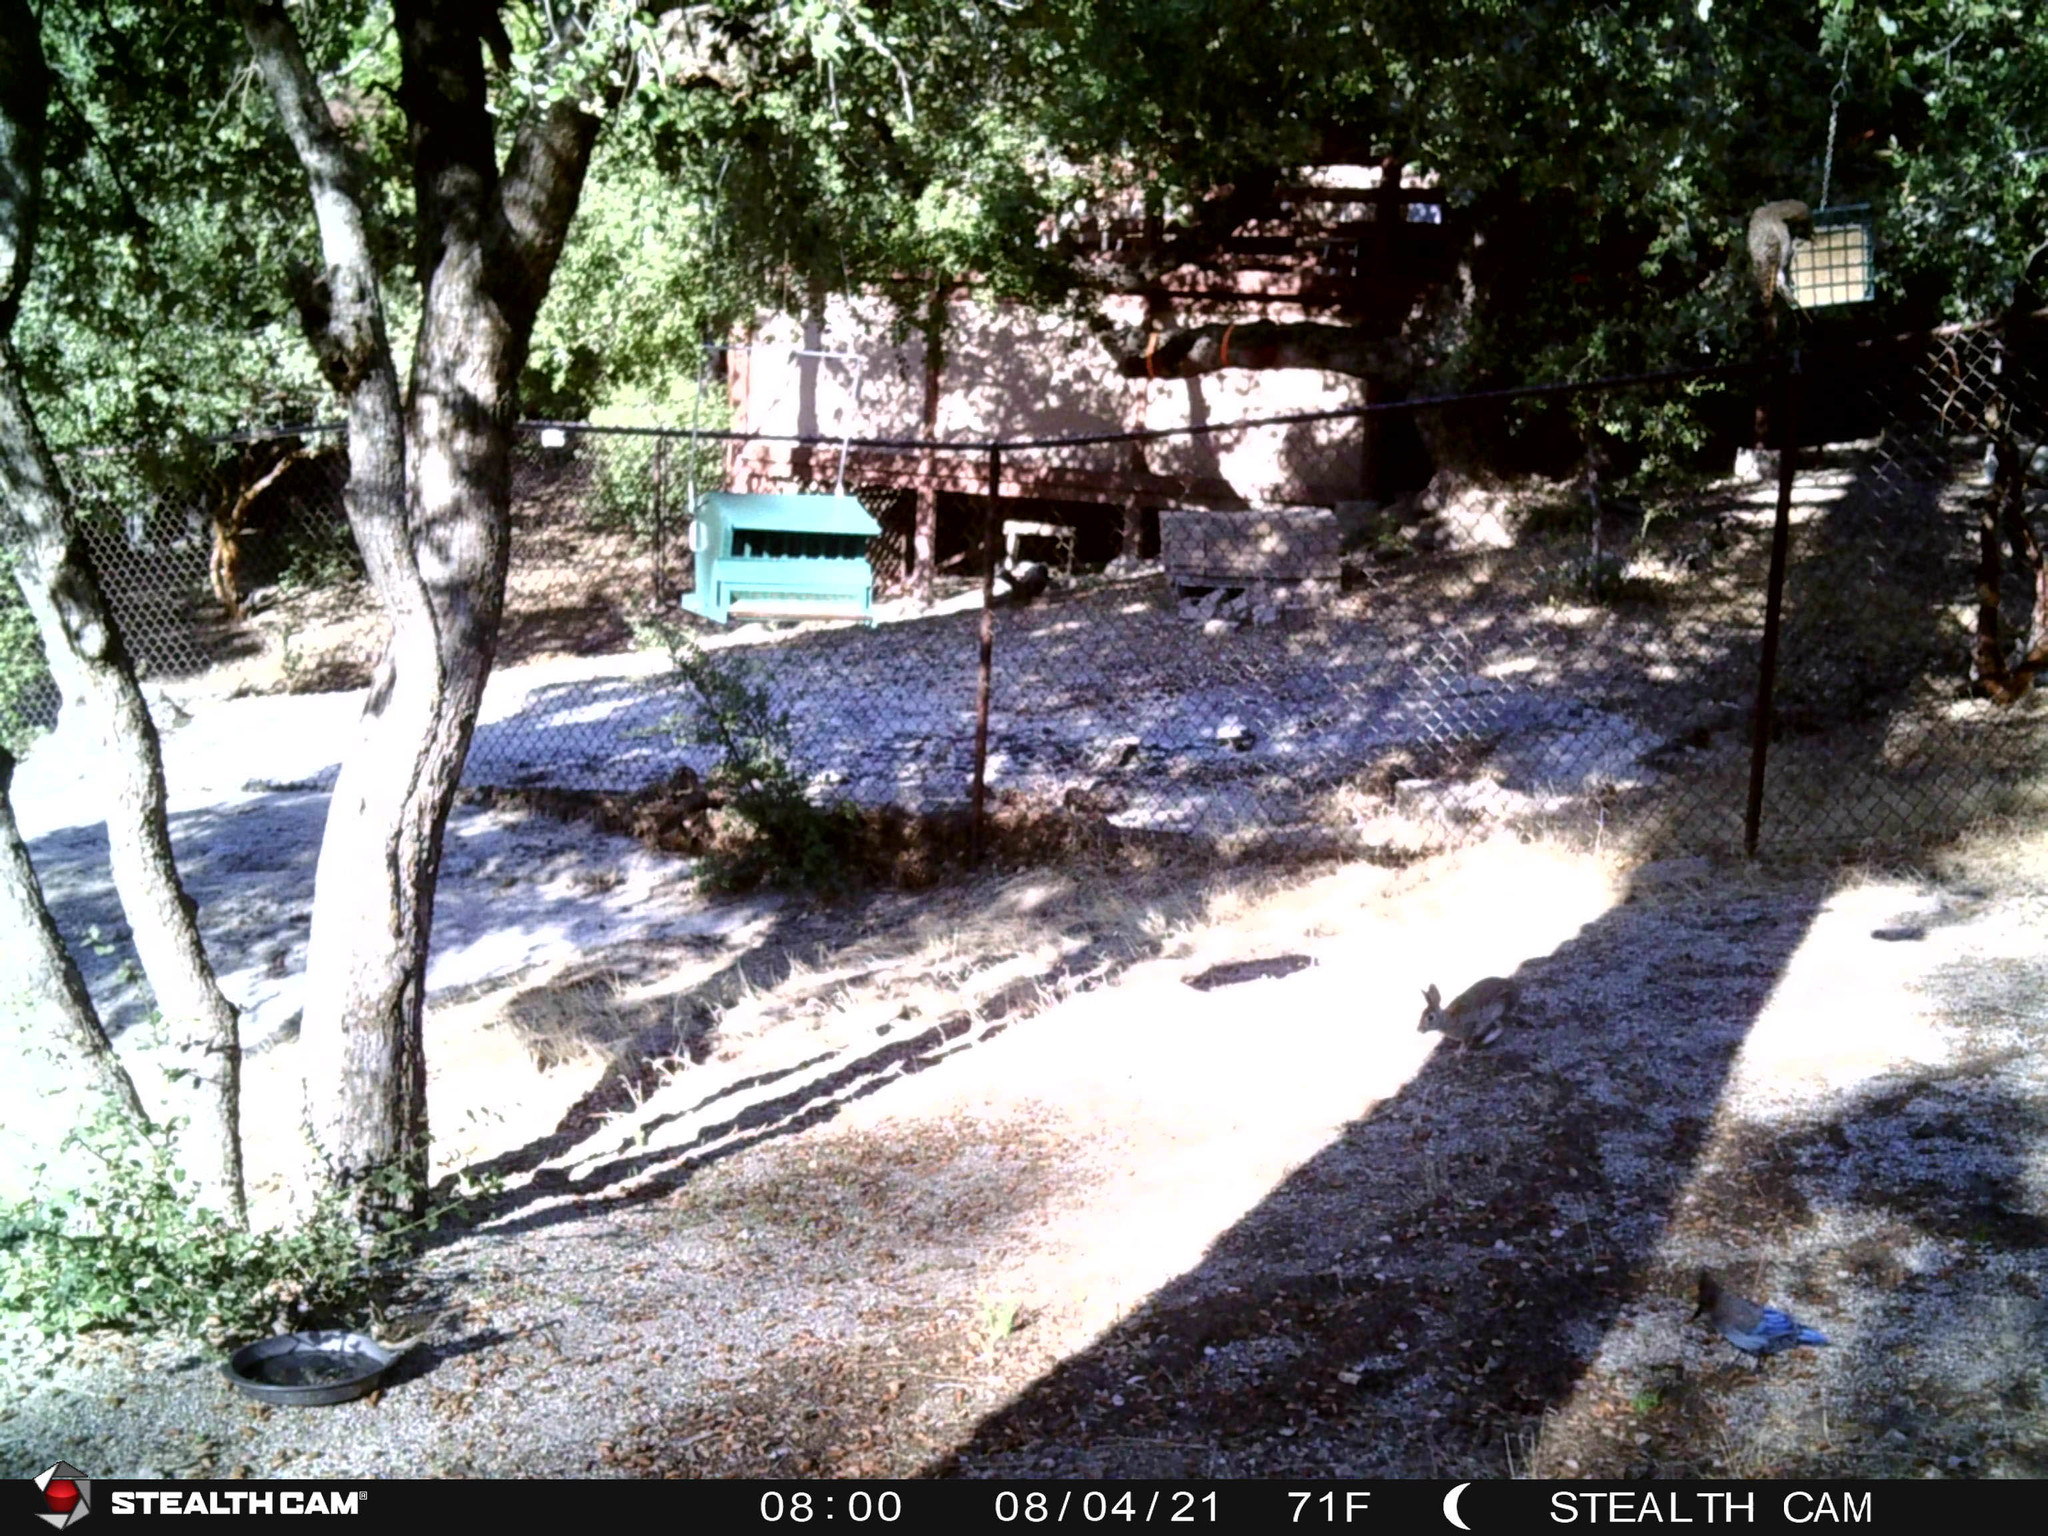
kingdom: Animalia
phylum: Chordata
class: Aves
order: Piciformes
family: Picidae
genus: Colaptes
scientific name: Colaptes auratus
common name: Northern flicker
